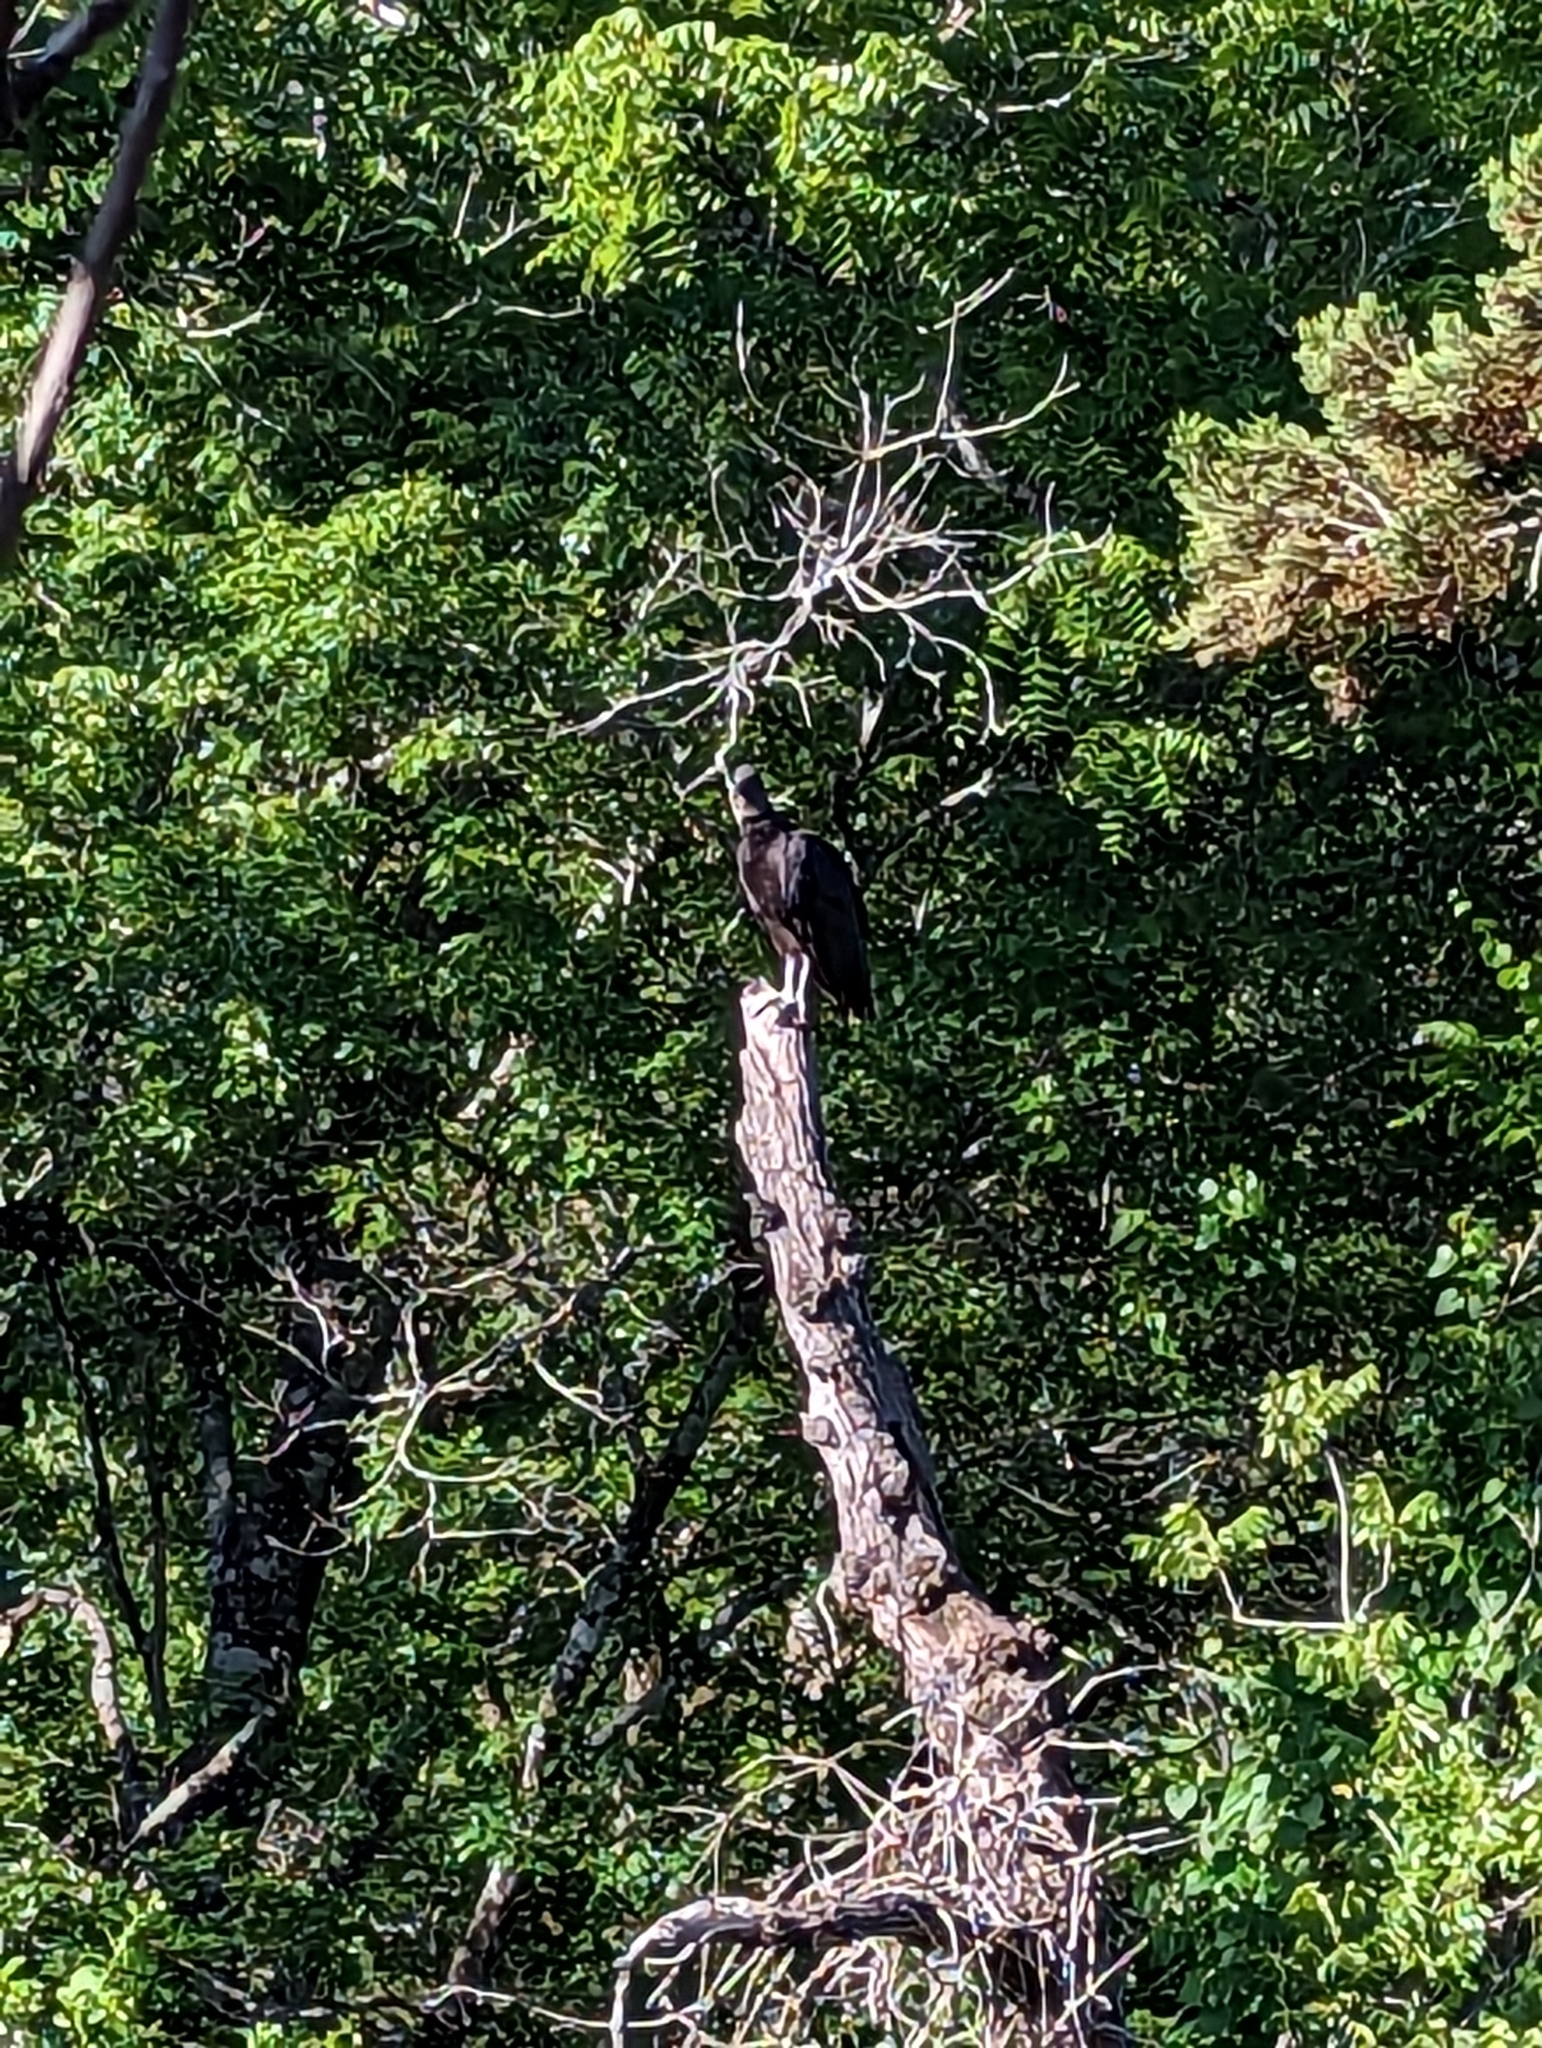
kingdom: Animalia
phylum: Chordata
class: Aves
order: Accipitriformes
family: Cathartidae
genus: Coragyps
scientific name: Coragyps atratus
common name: Black vulture
